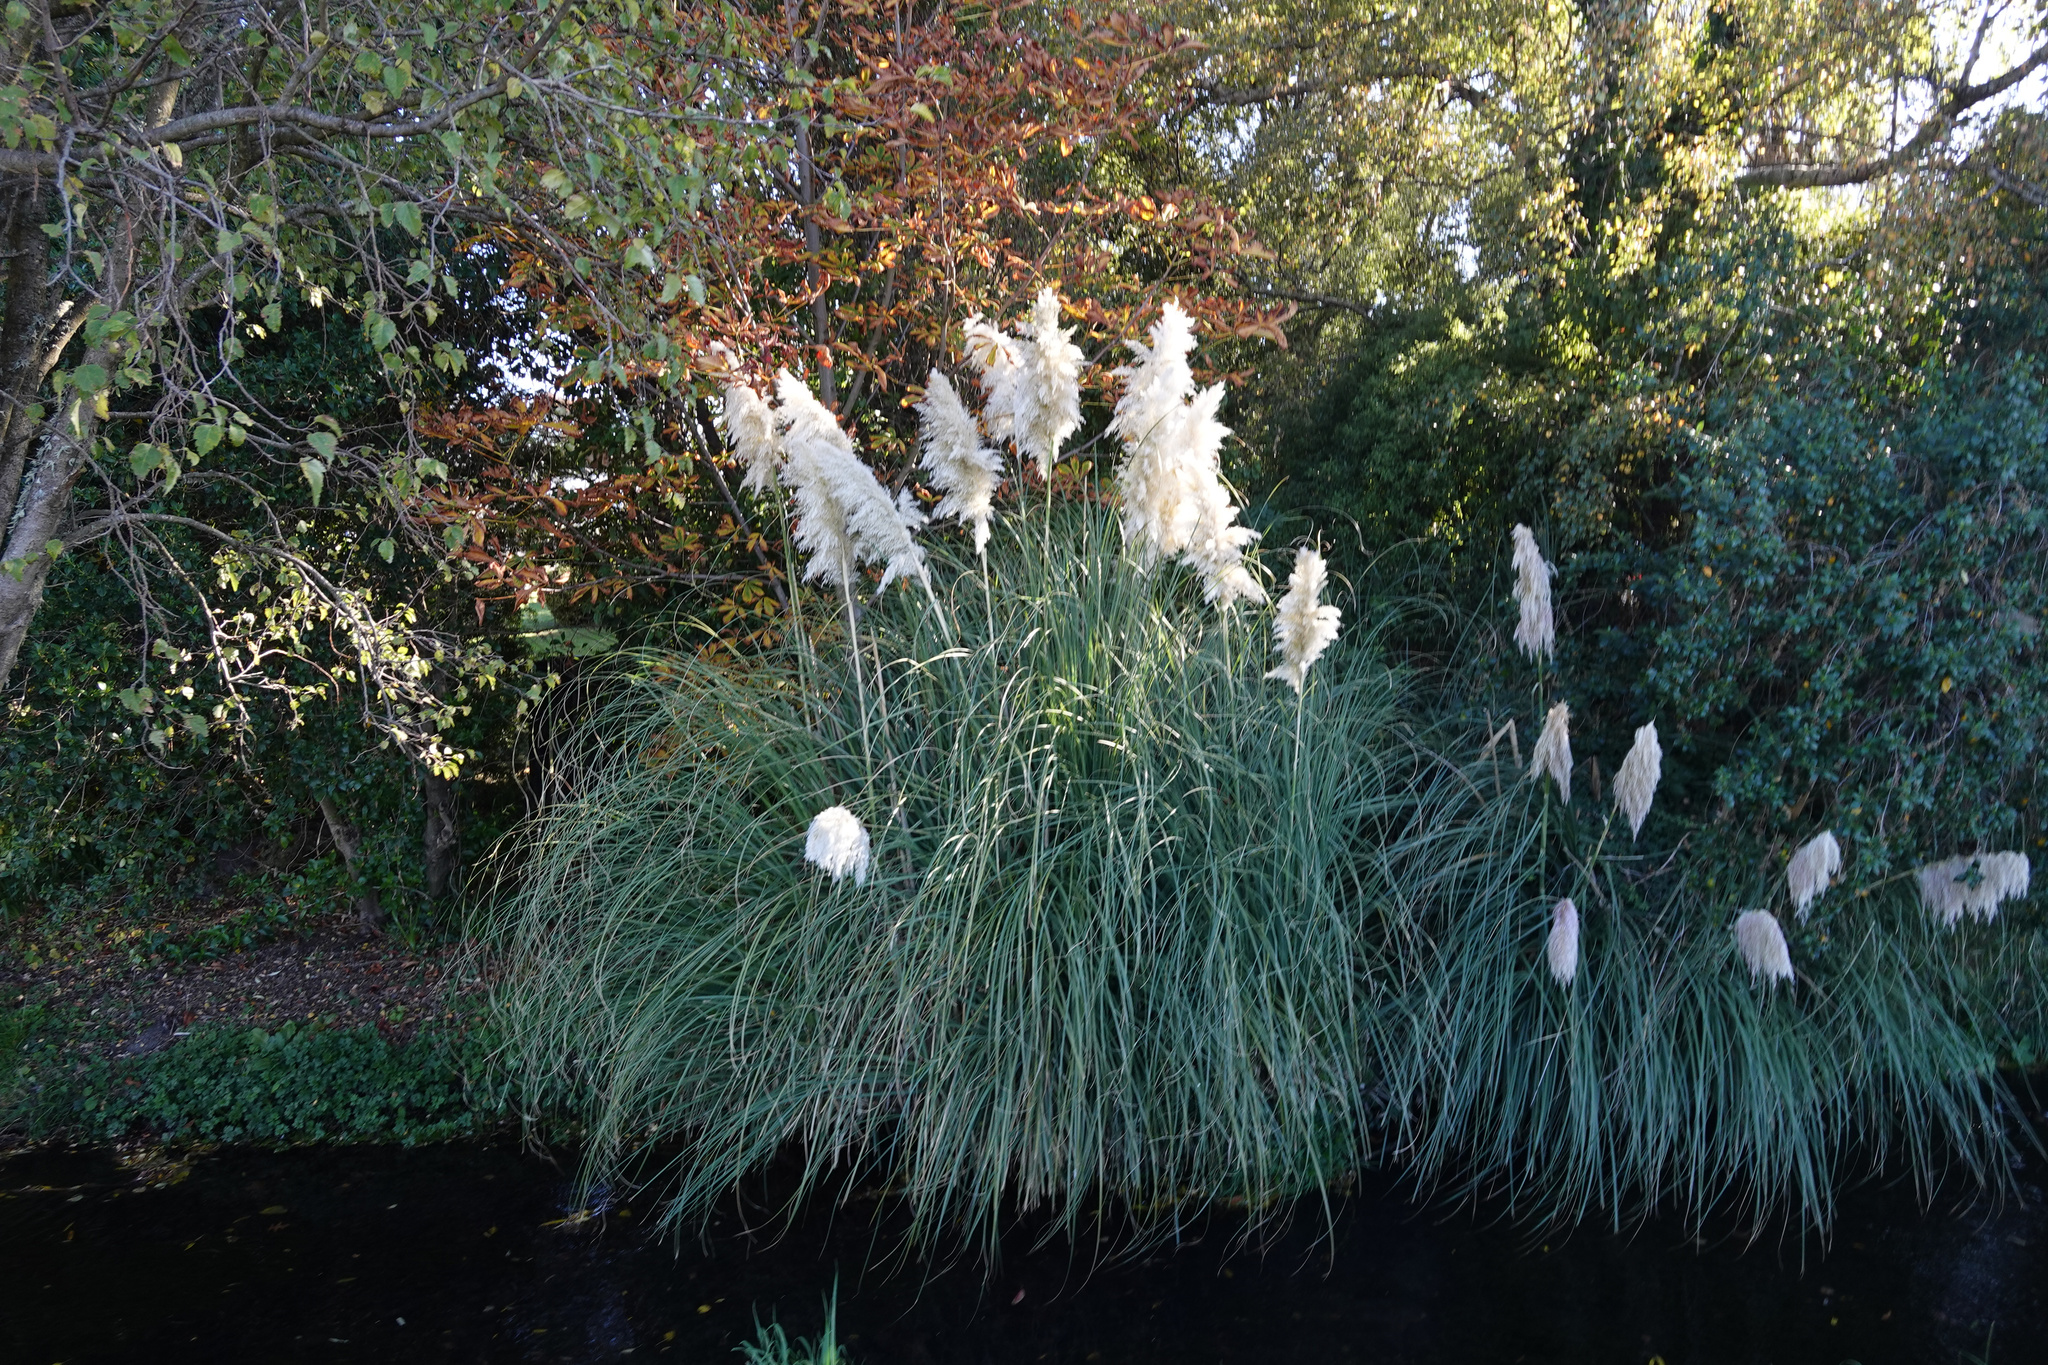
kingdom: Plantae
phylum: Tracheophyta
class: Liliopsida
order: Poales
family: Poaceae
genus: Cortaderia
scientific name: Cortaderia selloana
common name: Uruguayan pampas grass
